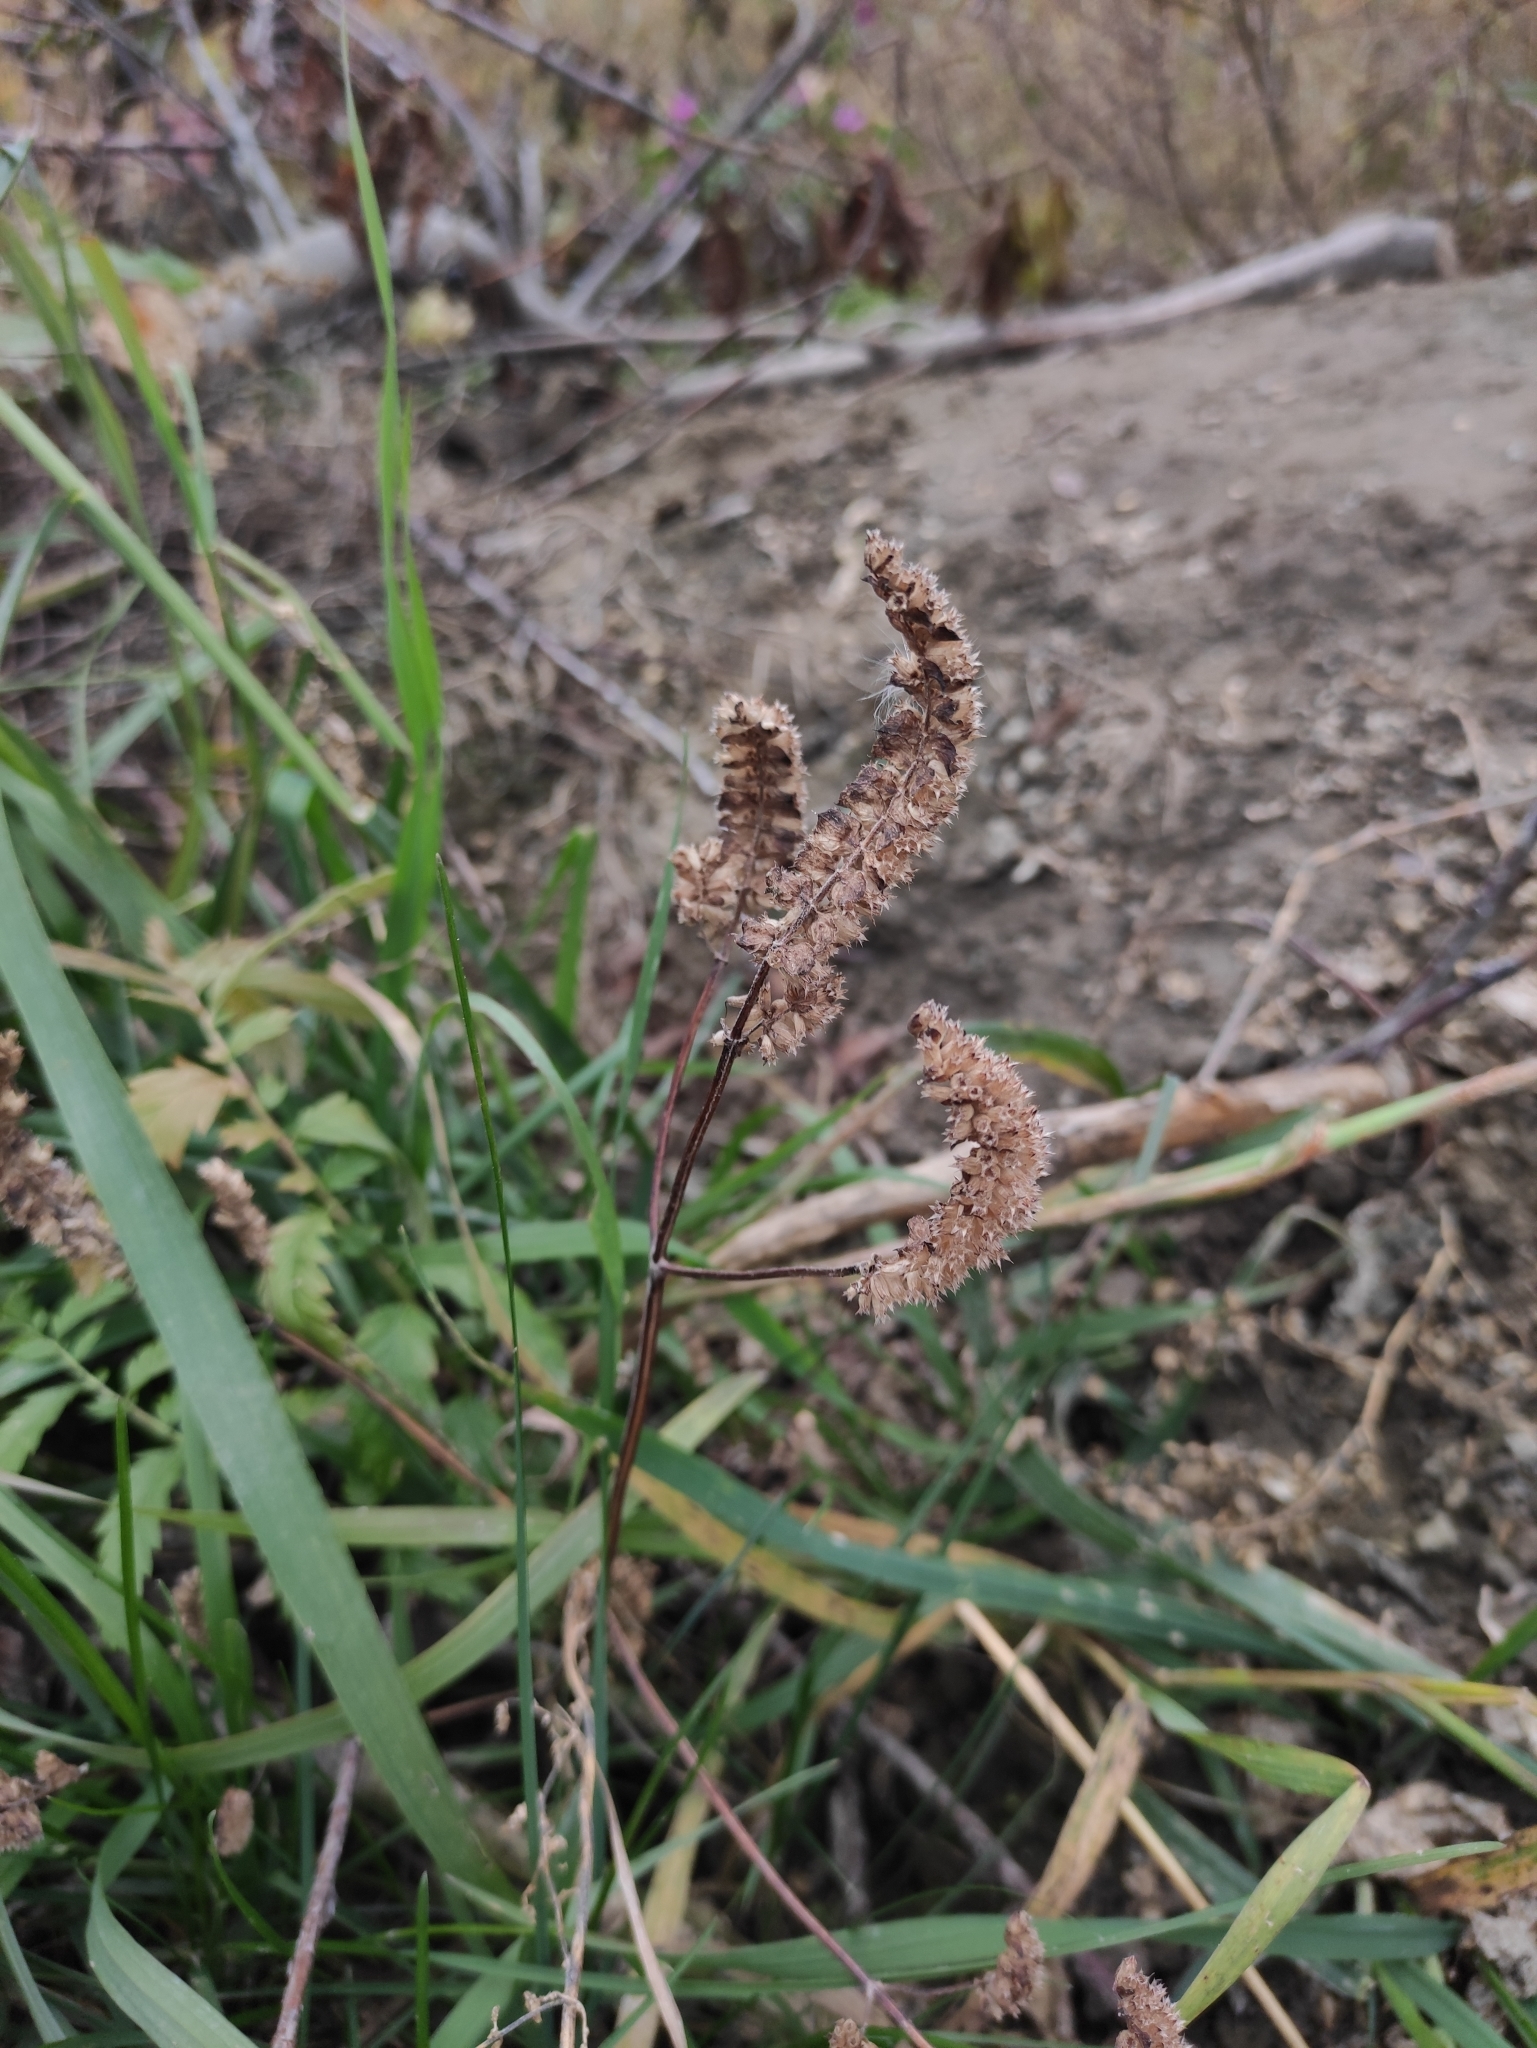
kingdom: Plantae
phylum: Tracheophyta
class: Magnoliopsida
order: Lamiales
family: Lamiaceae
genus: Elsholtzia
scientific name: Elsholtzia ciliata
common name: Ciliate elsholtzia
